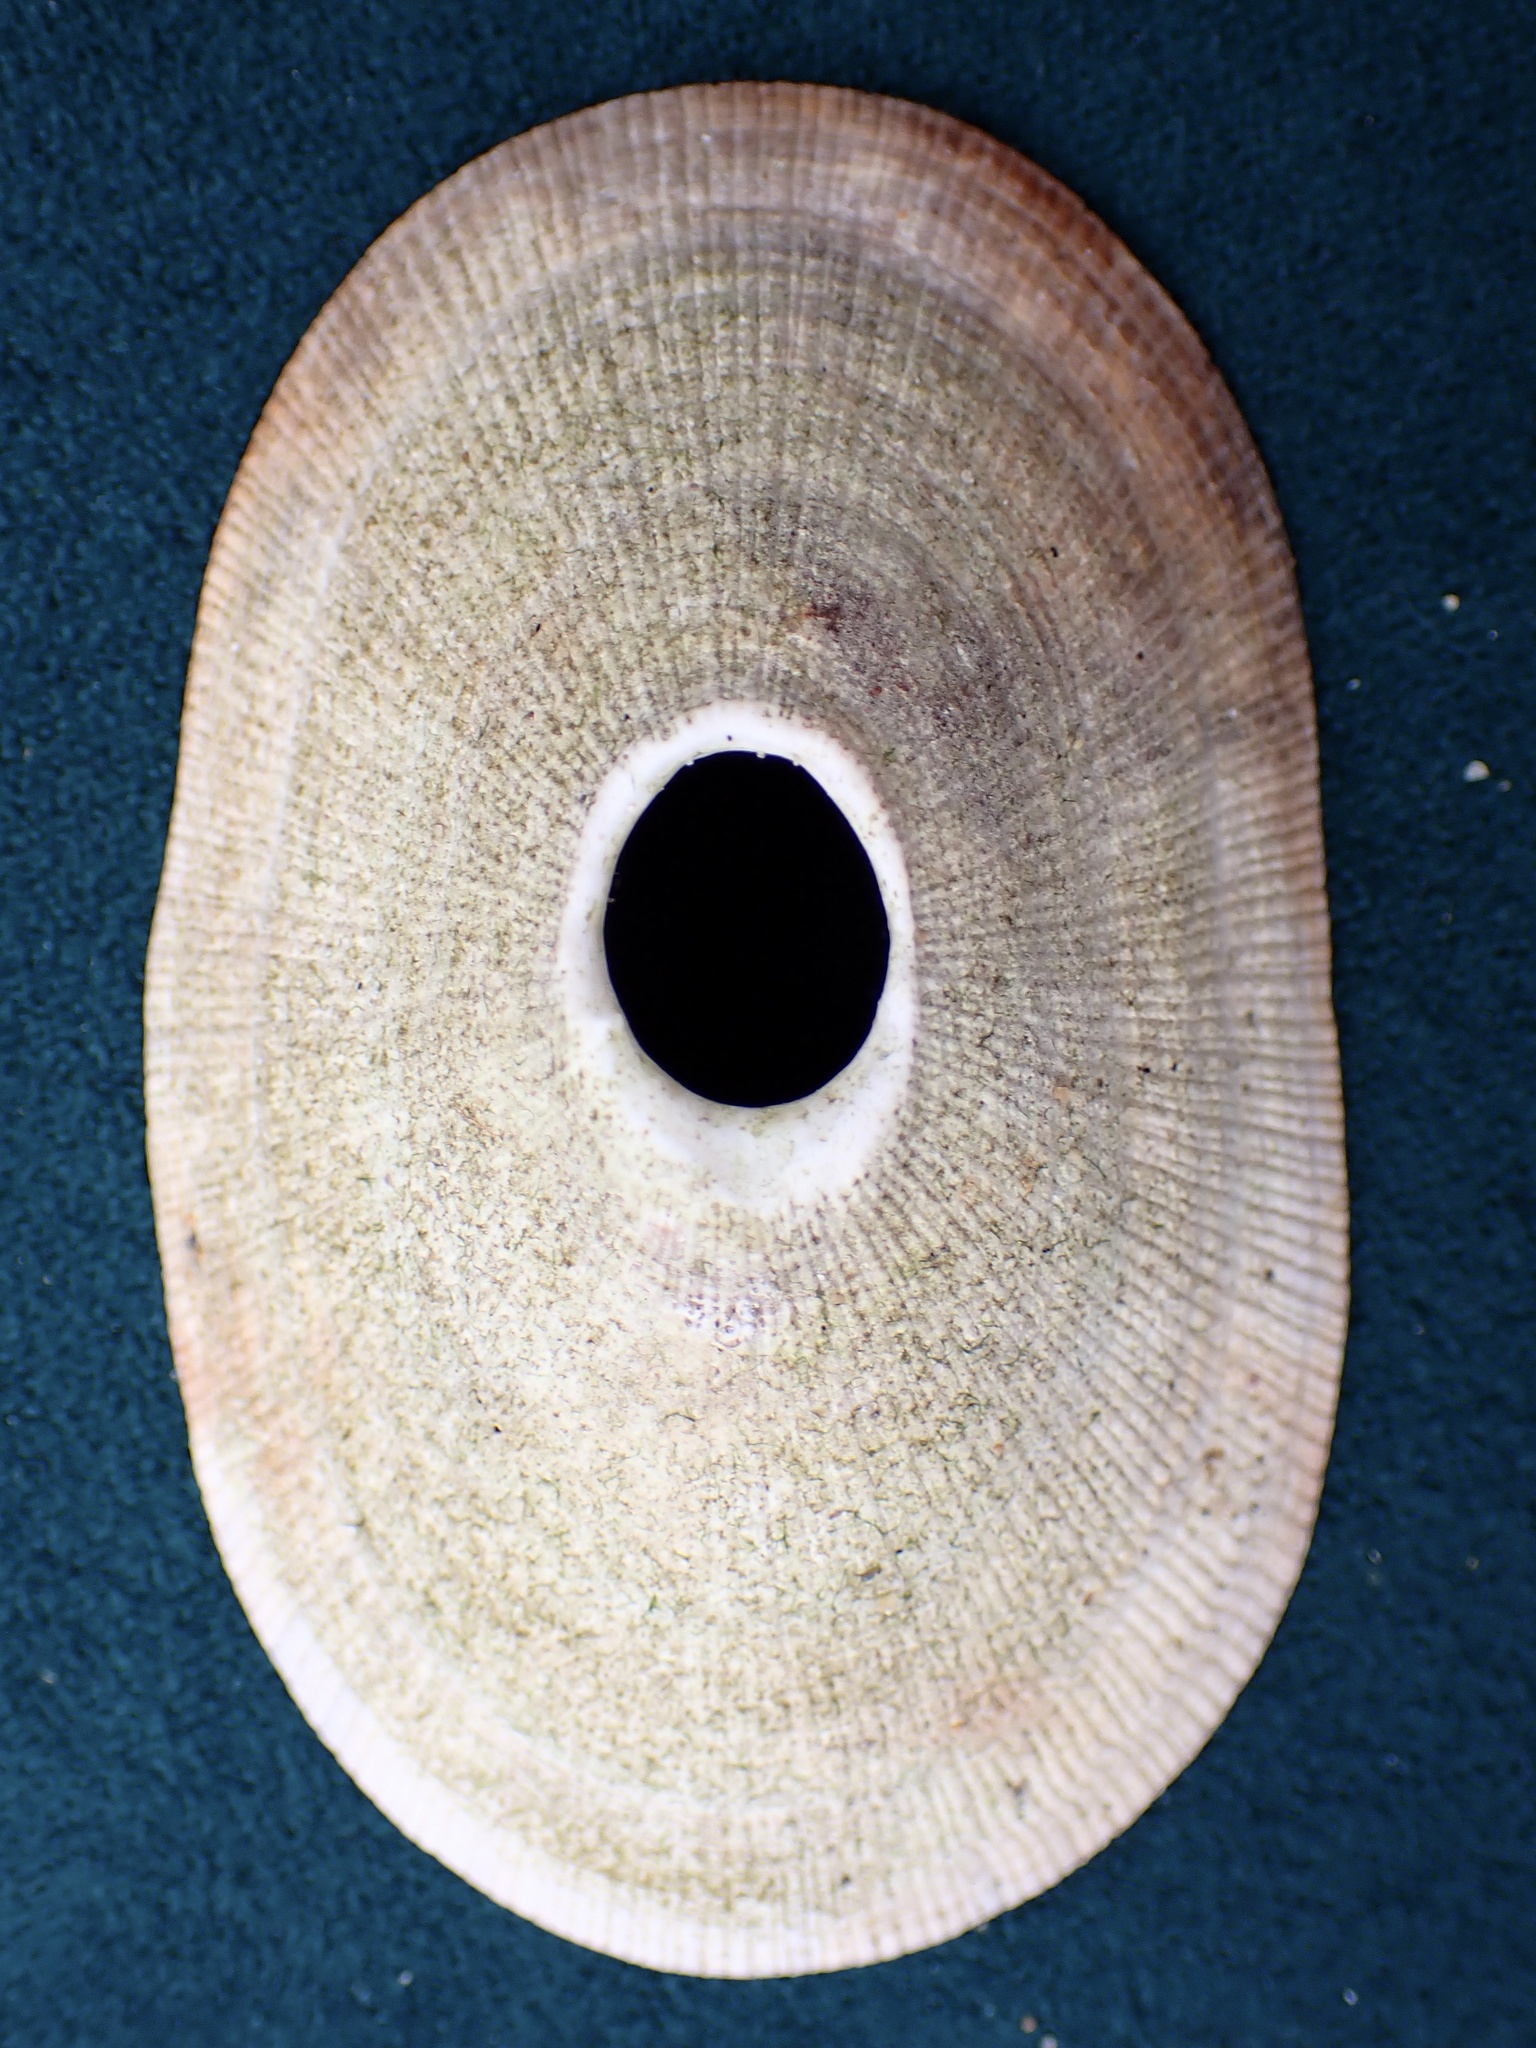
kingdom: Animalia
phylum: Mollusca
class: Gastropoda
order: Lepetellida
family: Fissurellidae
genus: Megathura
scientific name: Megathura crenulata
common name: Giant keyhole limpet
